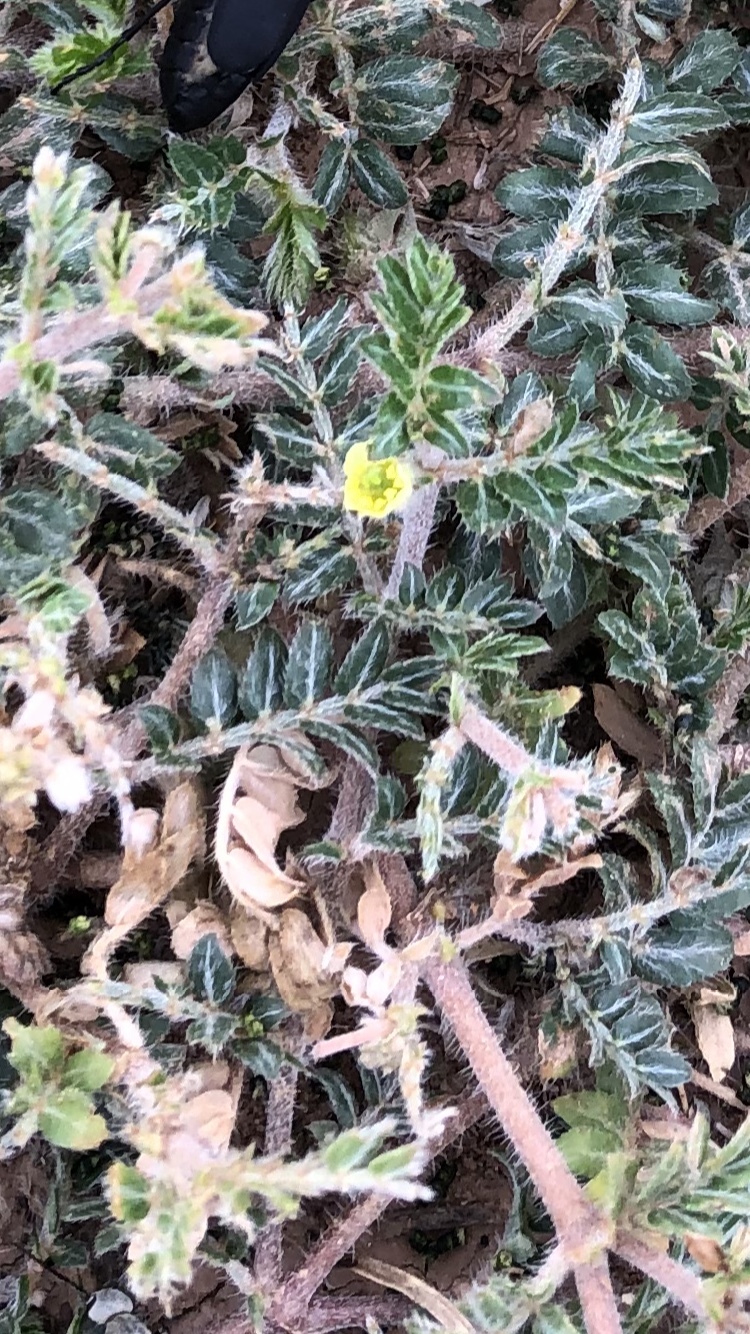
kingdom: Plantae
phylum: Tracheophyta
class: Magnoliopsida
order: Zygophyllales
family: Zygophyllaceae
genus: Tribulus
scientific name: Tribulus terrestris
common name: Puncturevine
